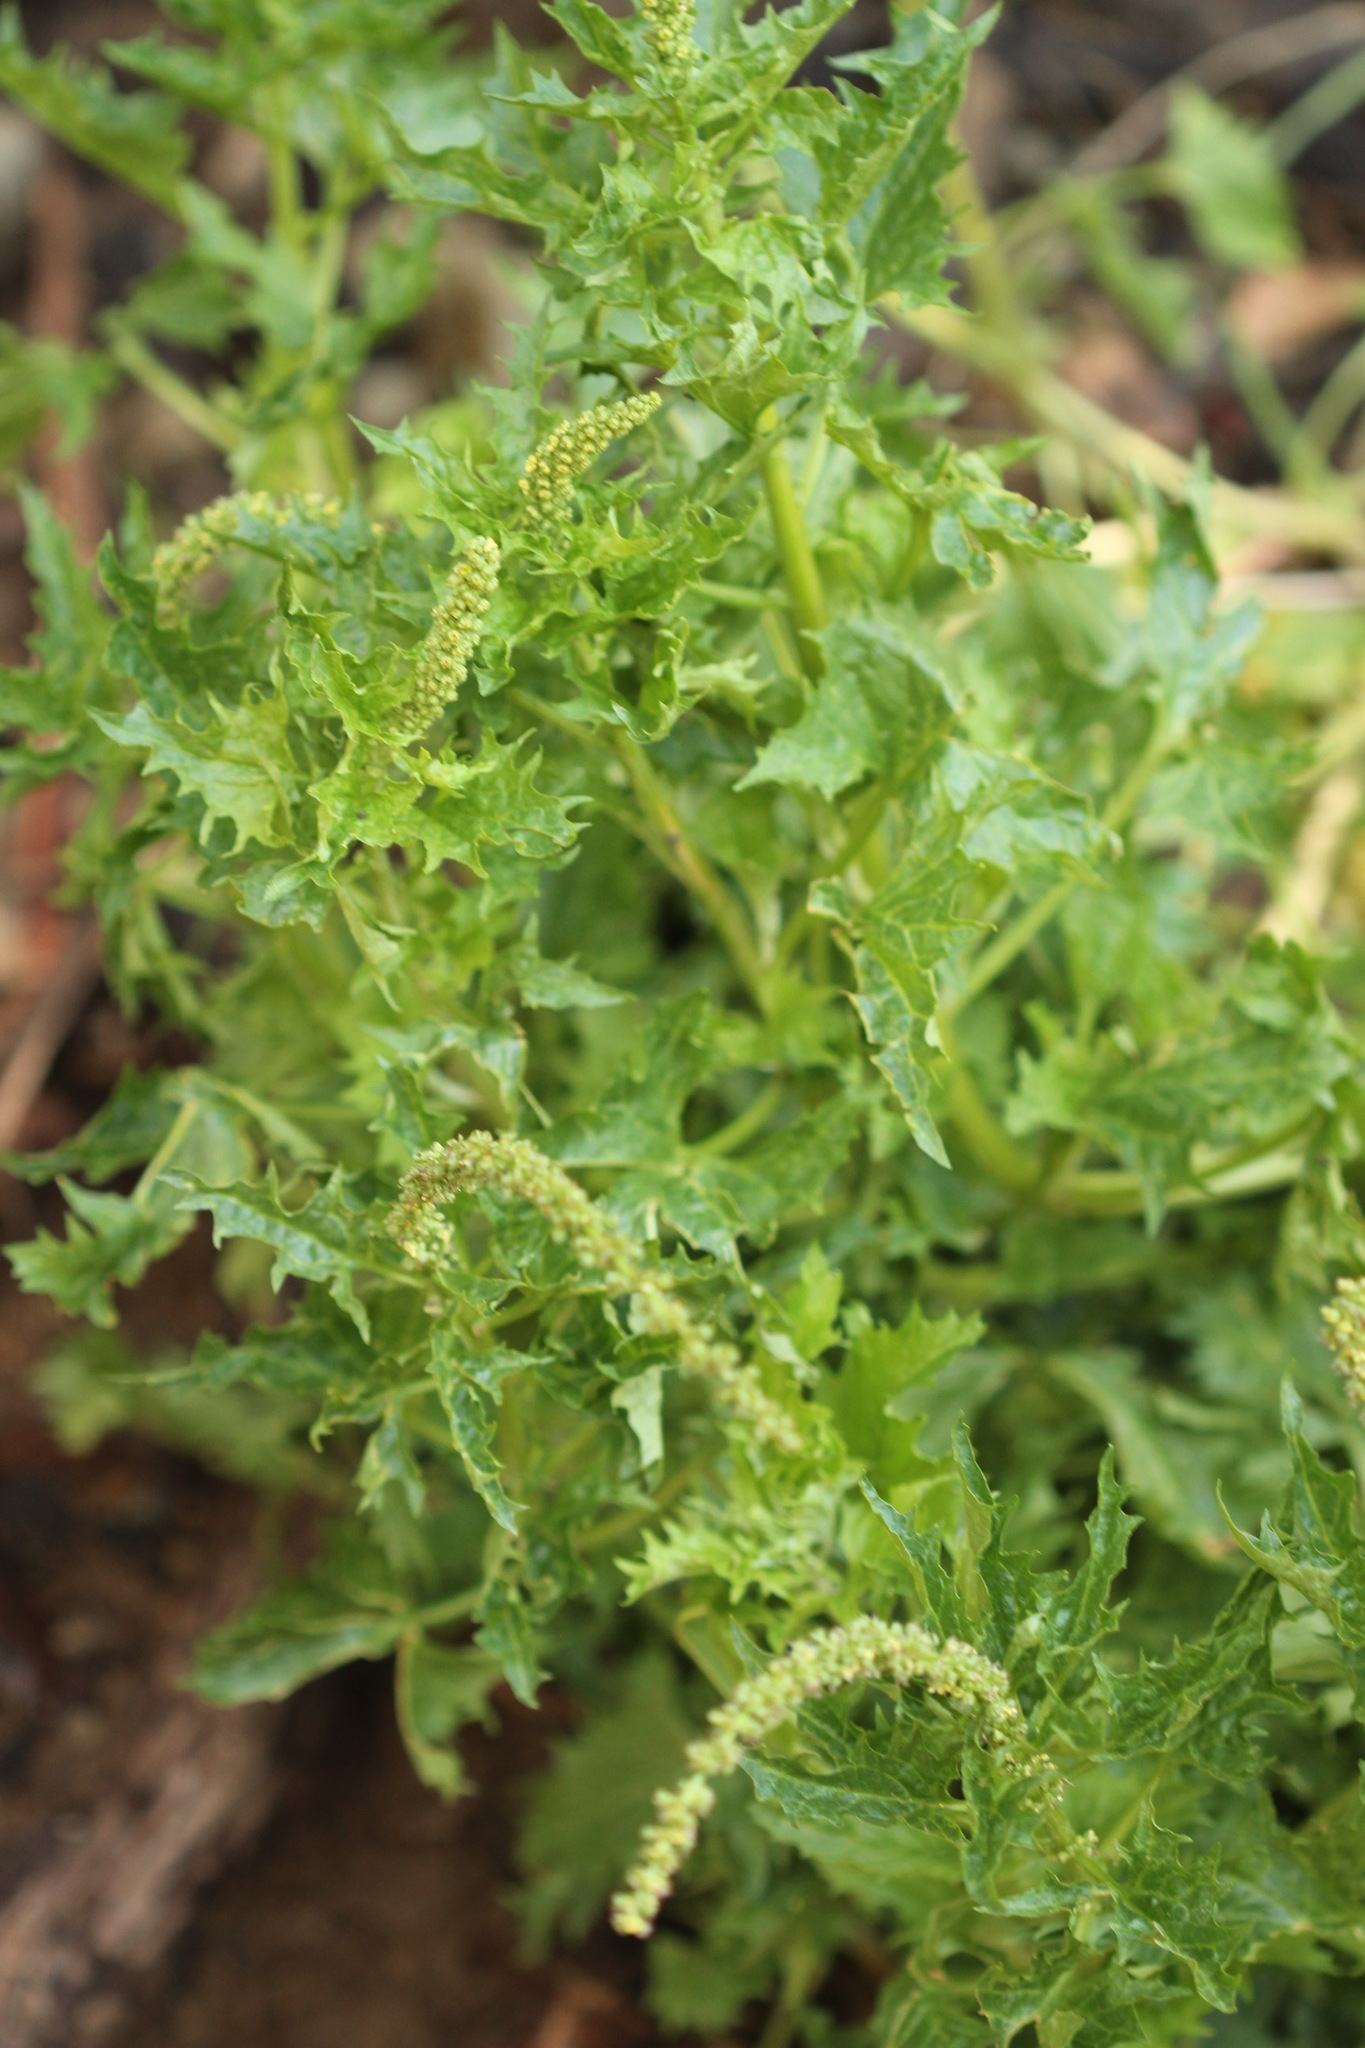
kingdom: Plantae
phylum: Tracheophyta
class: Magnoliopsida
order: Caryophyllales
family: Amaranthaceae
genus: Blitum
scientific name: Blitum californicum
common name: California goosefoot
